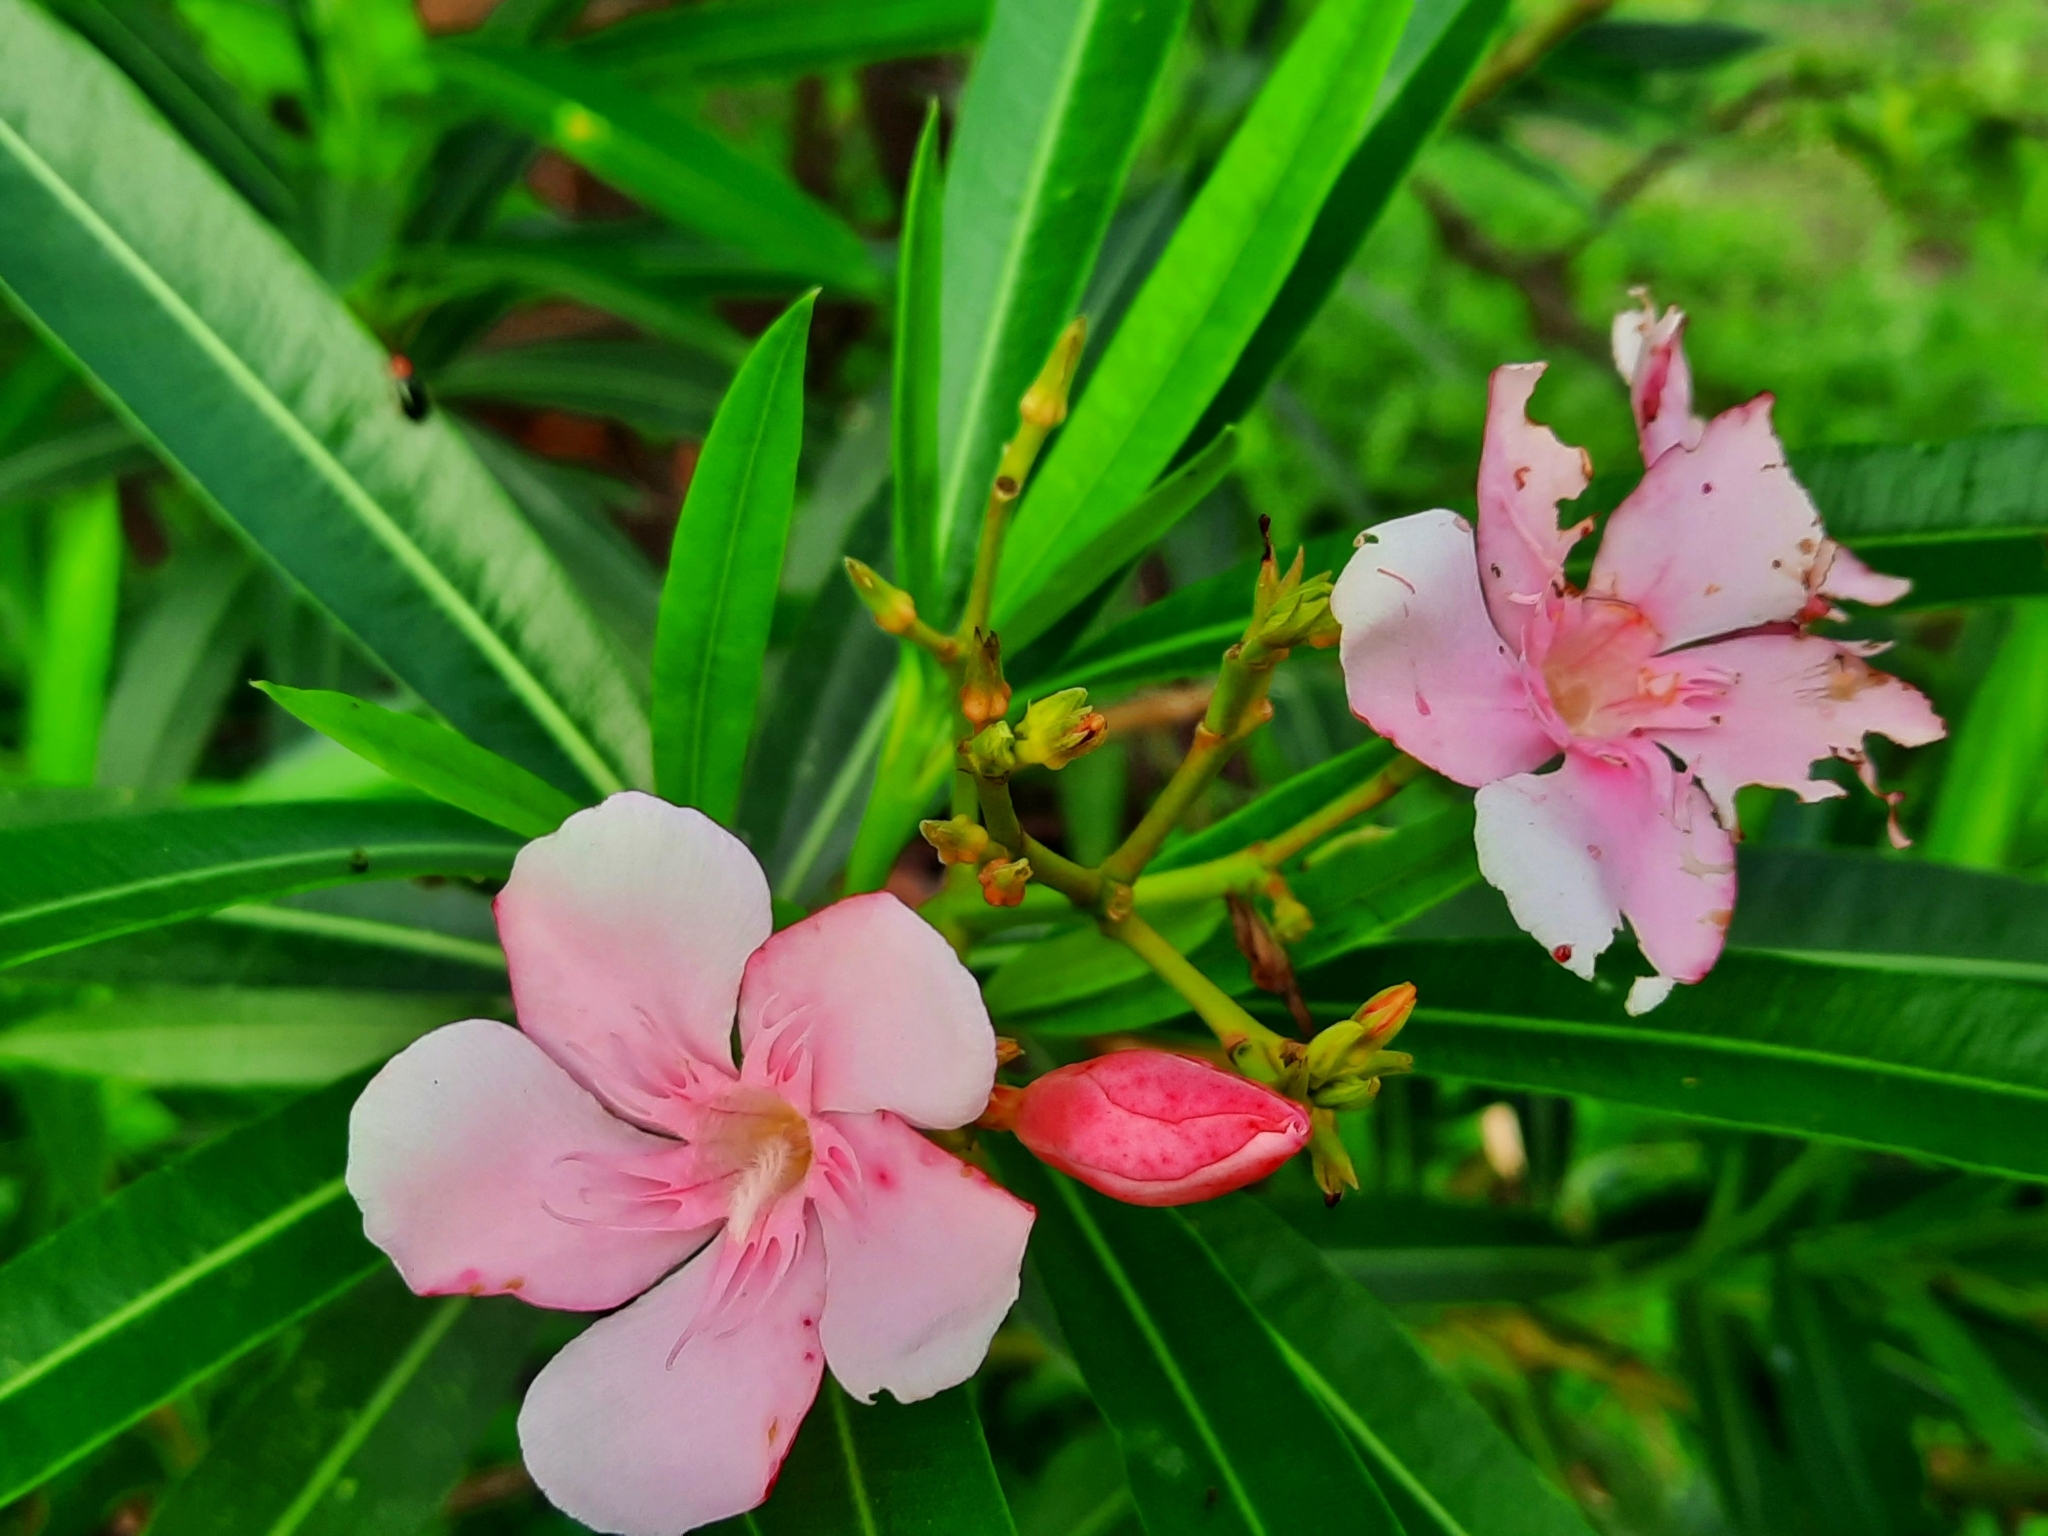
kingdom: Plantae
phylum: Tracheophyta
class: Magnoliopsida
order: Gentianales
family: Apocynaceae
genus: Nerium
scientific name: Nerium oleander
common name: Oleander
